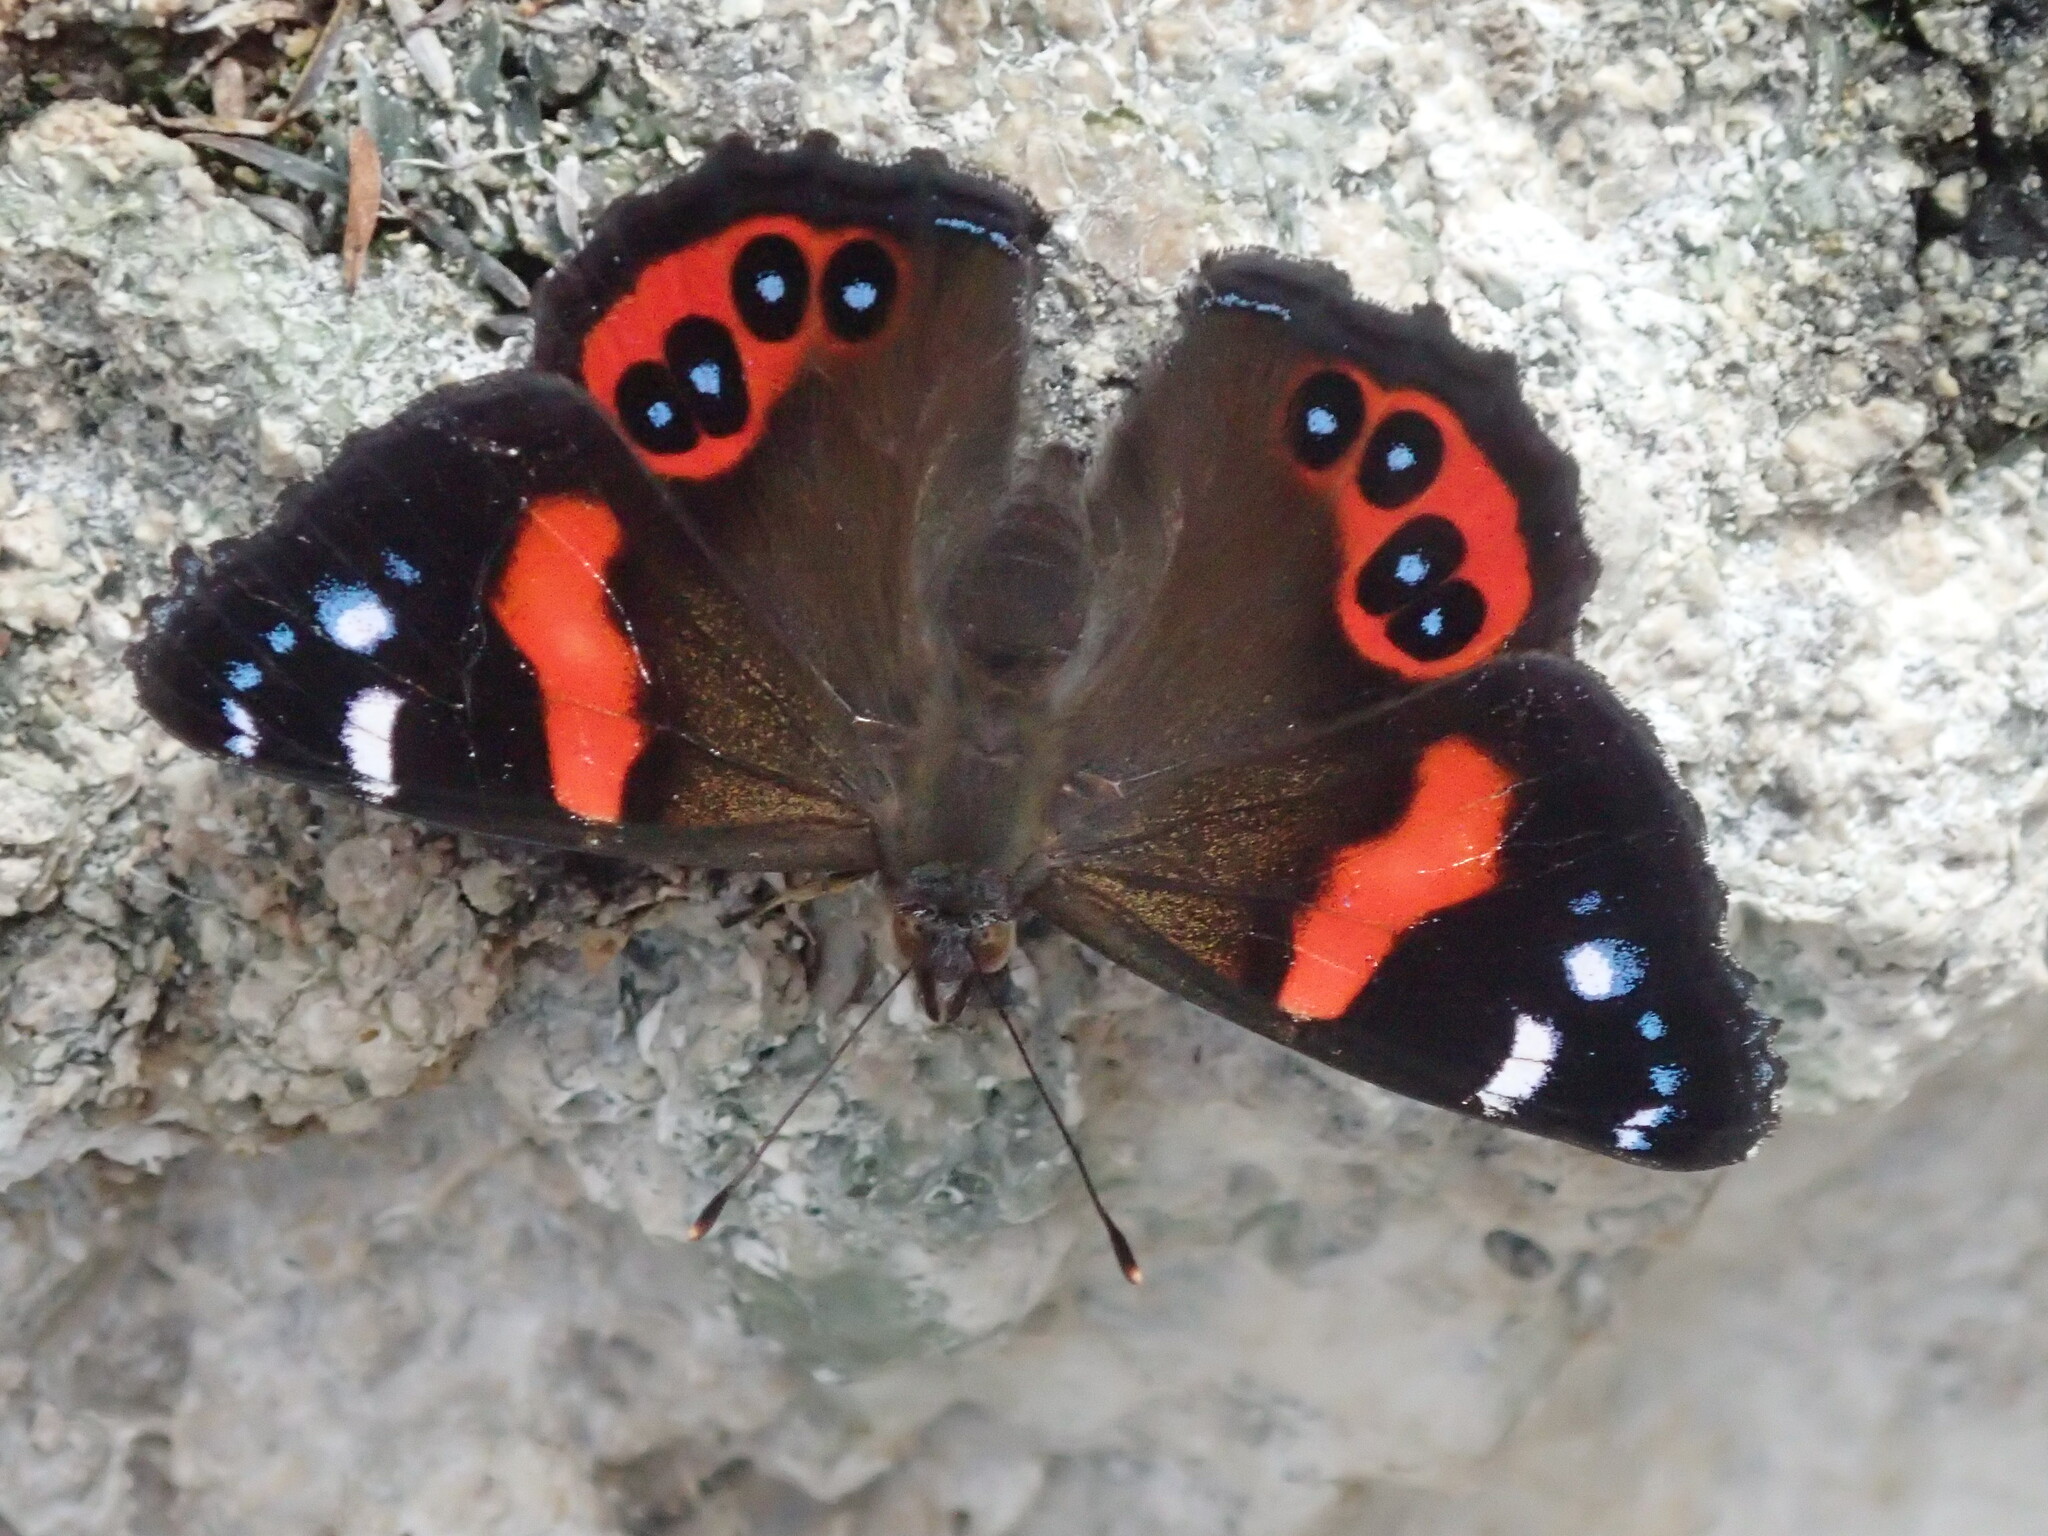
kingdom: Animalia
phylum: Arthropoda
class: Insecta
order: Lepidoptera
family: Nymphalidae
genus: Vanessa
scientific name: Vanessa gonerilla
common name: New zealand red admiral
